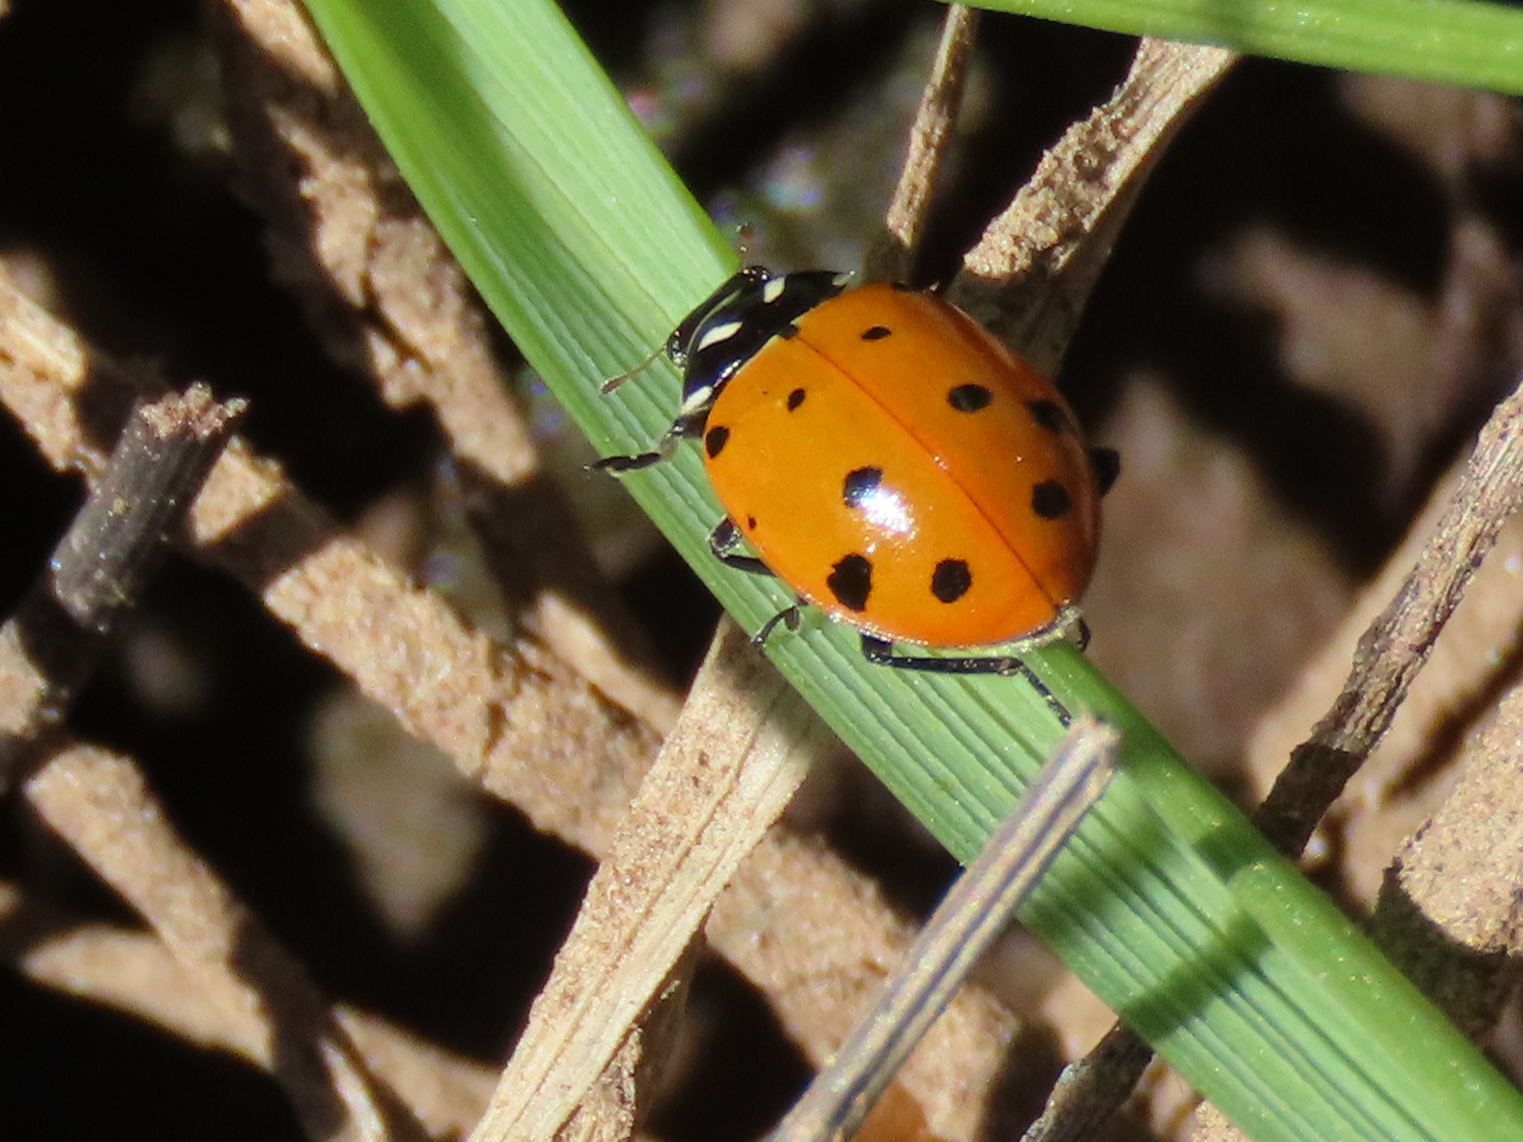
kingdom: Animalia
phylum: Arthropoda
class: Insecta
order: Coleoptera
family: Coccinellidae
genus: Hippodamia
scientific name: Hippodamia convergens
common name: Convergent lady beetle
